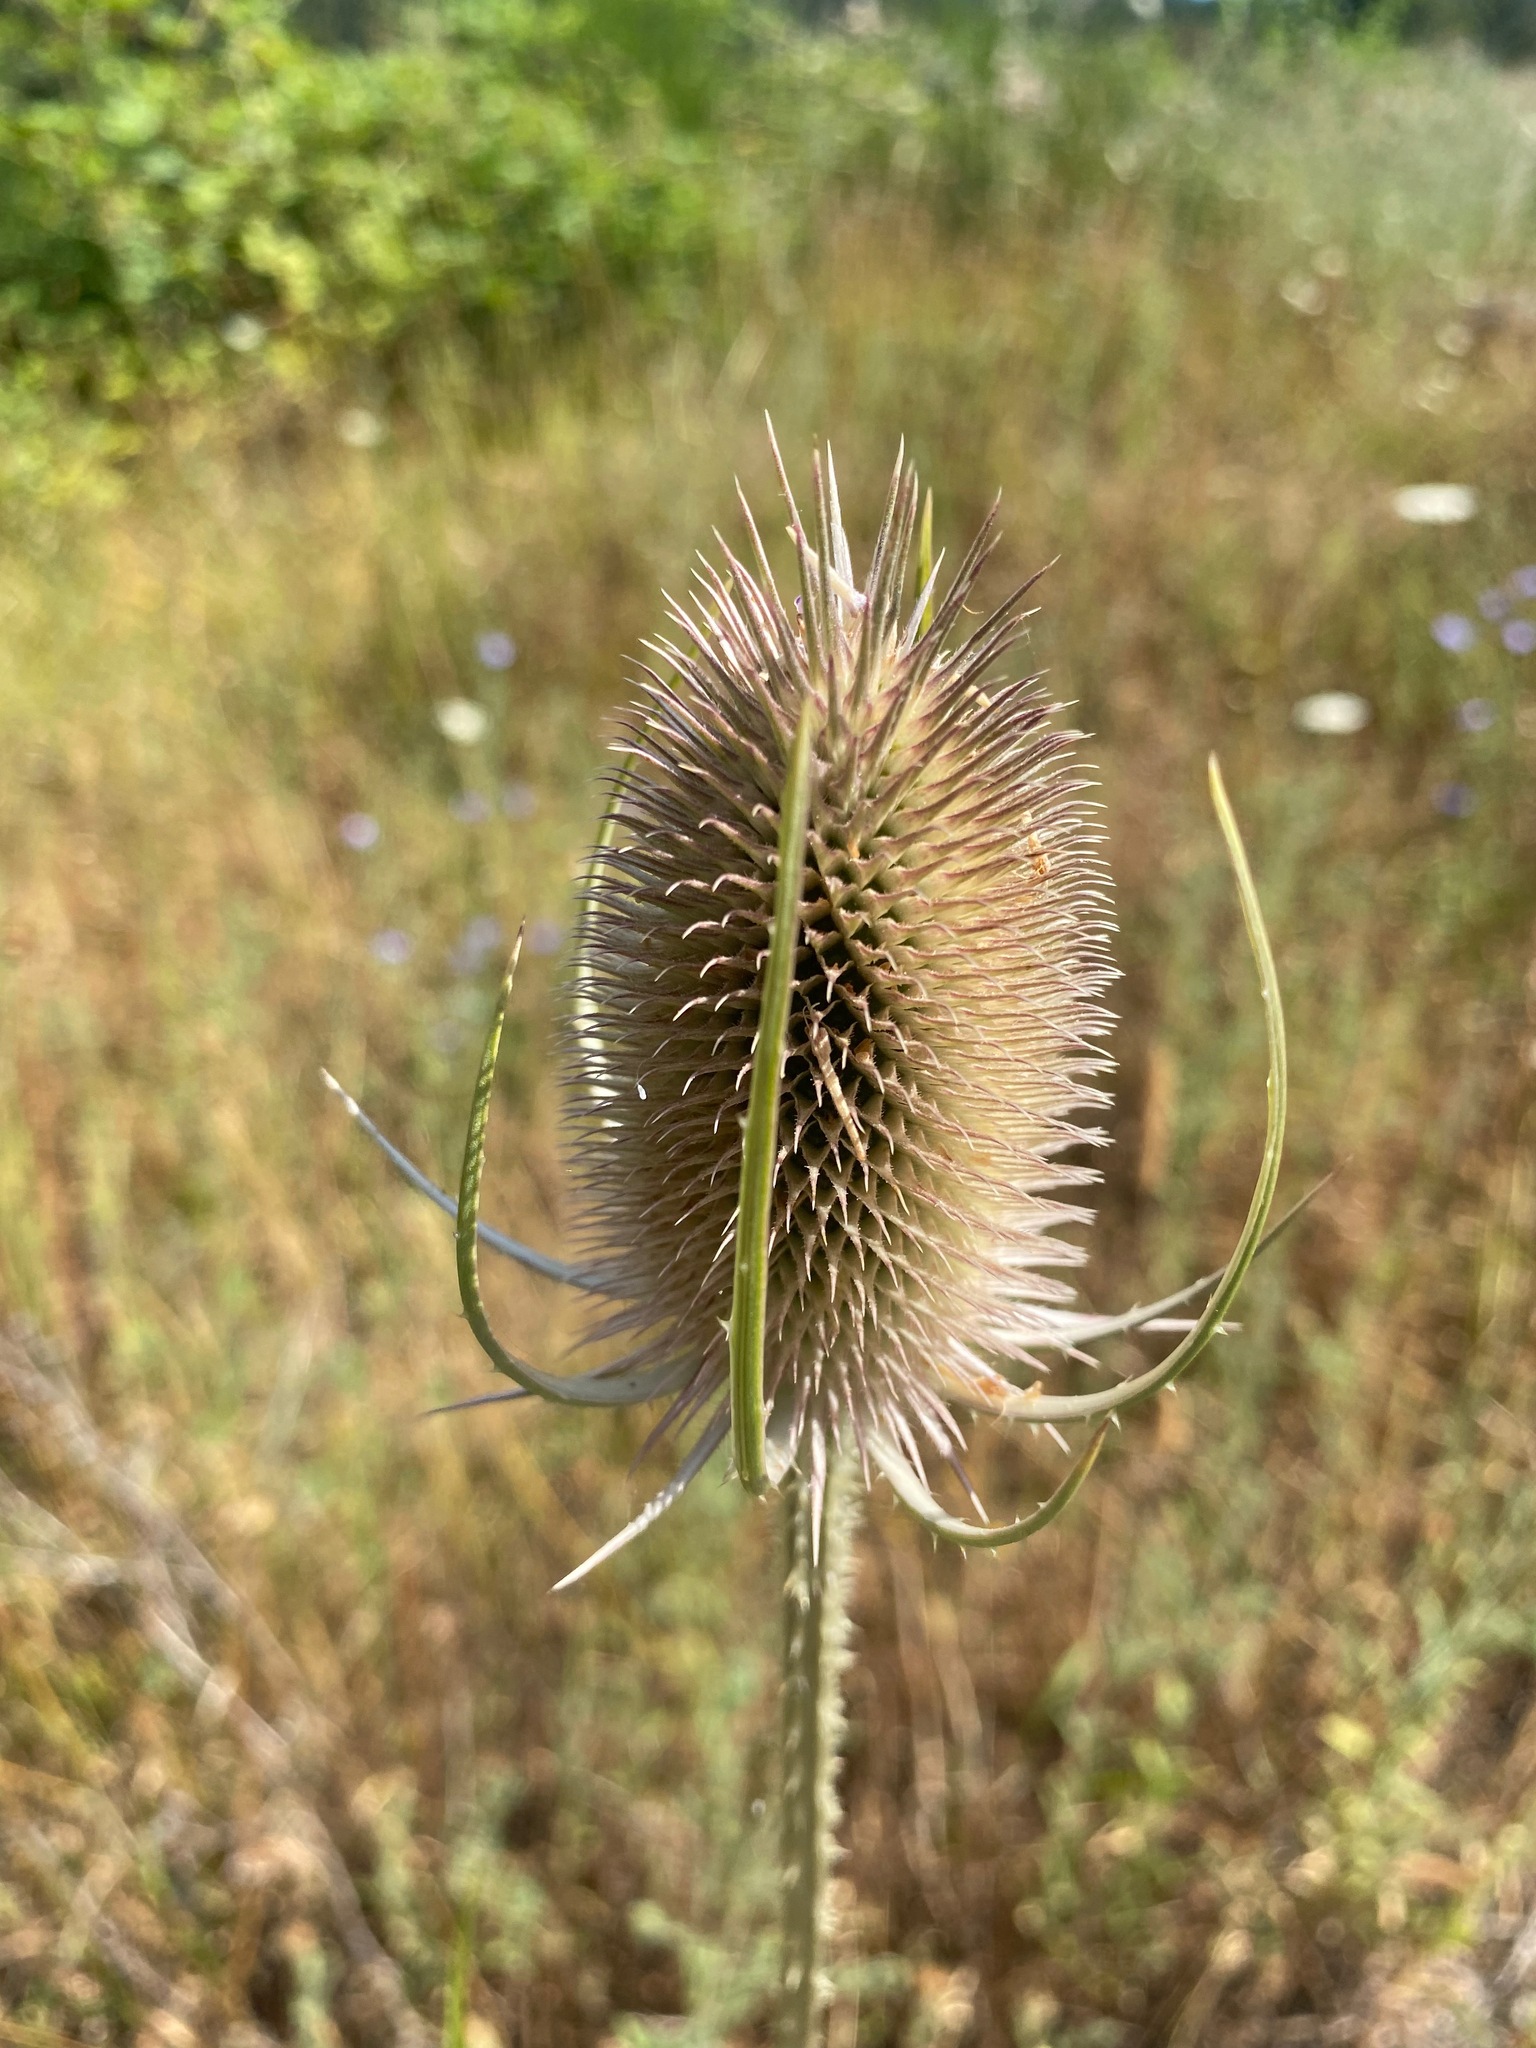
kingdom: Plantae
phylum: Tracheophyta
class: Magnoliopsida
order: Dipsacales
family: Caprifoliaceae
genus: Dipsacus
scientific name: Dipsacus fullonum
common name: Teasel
